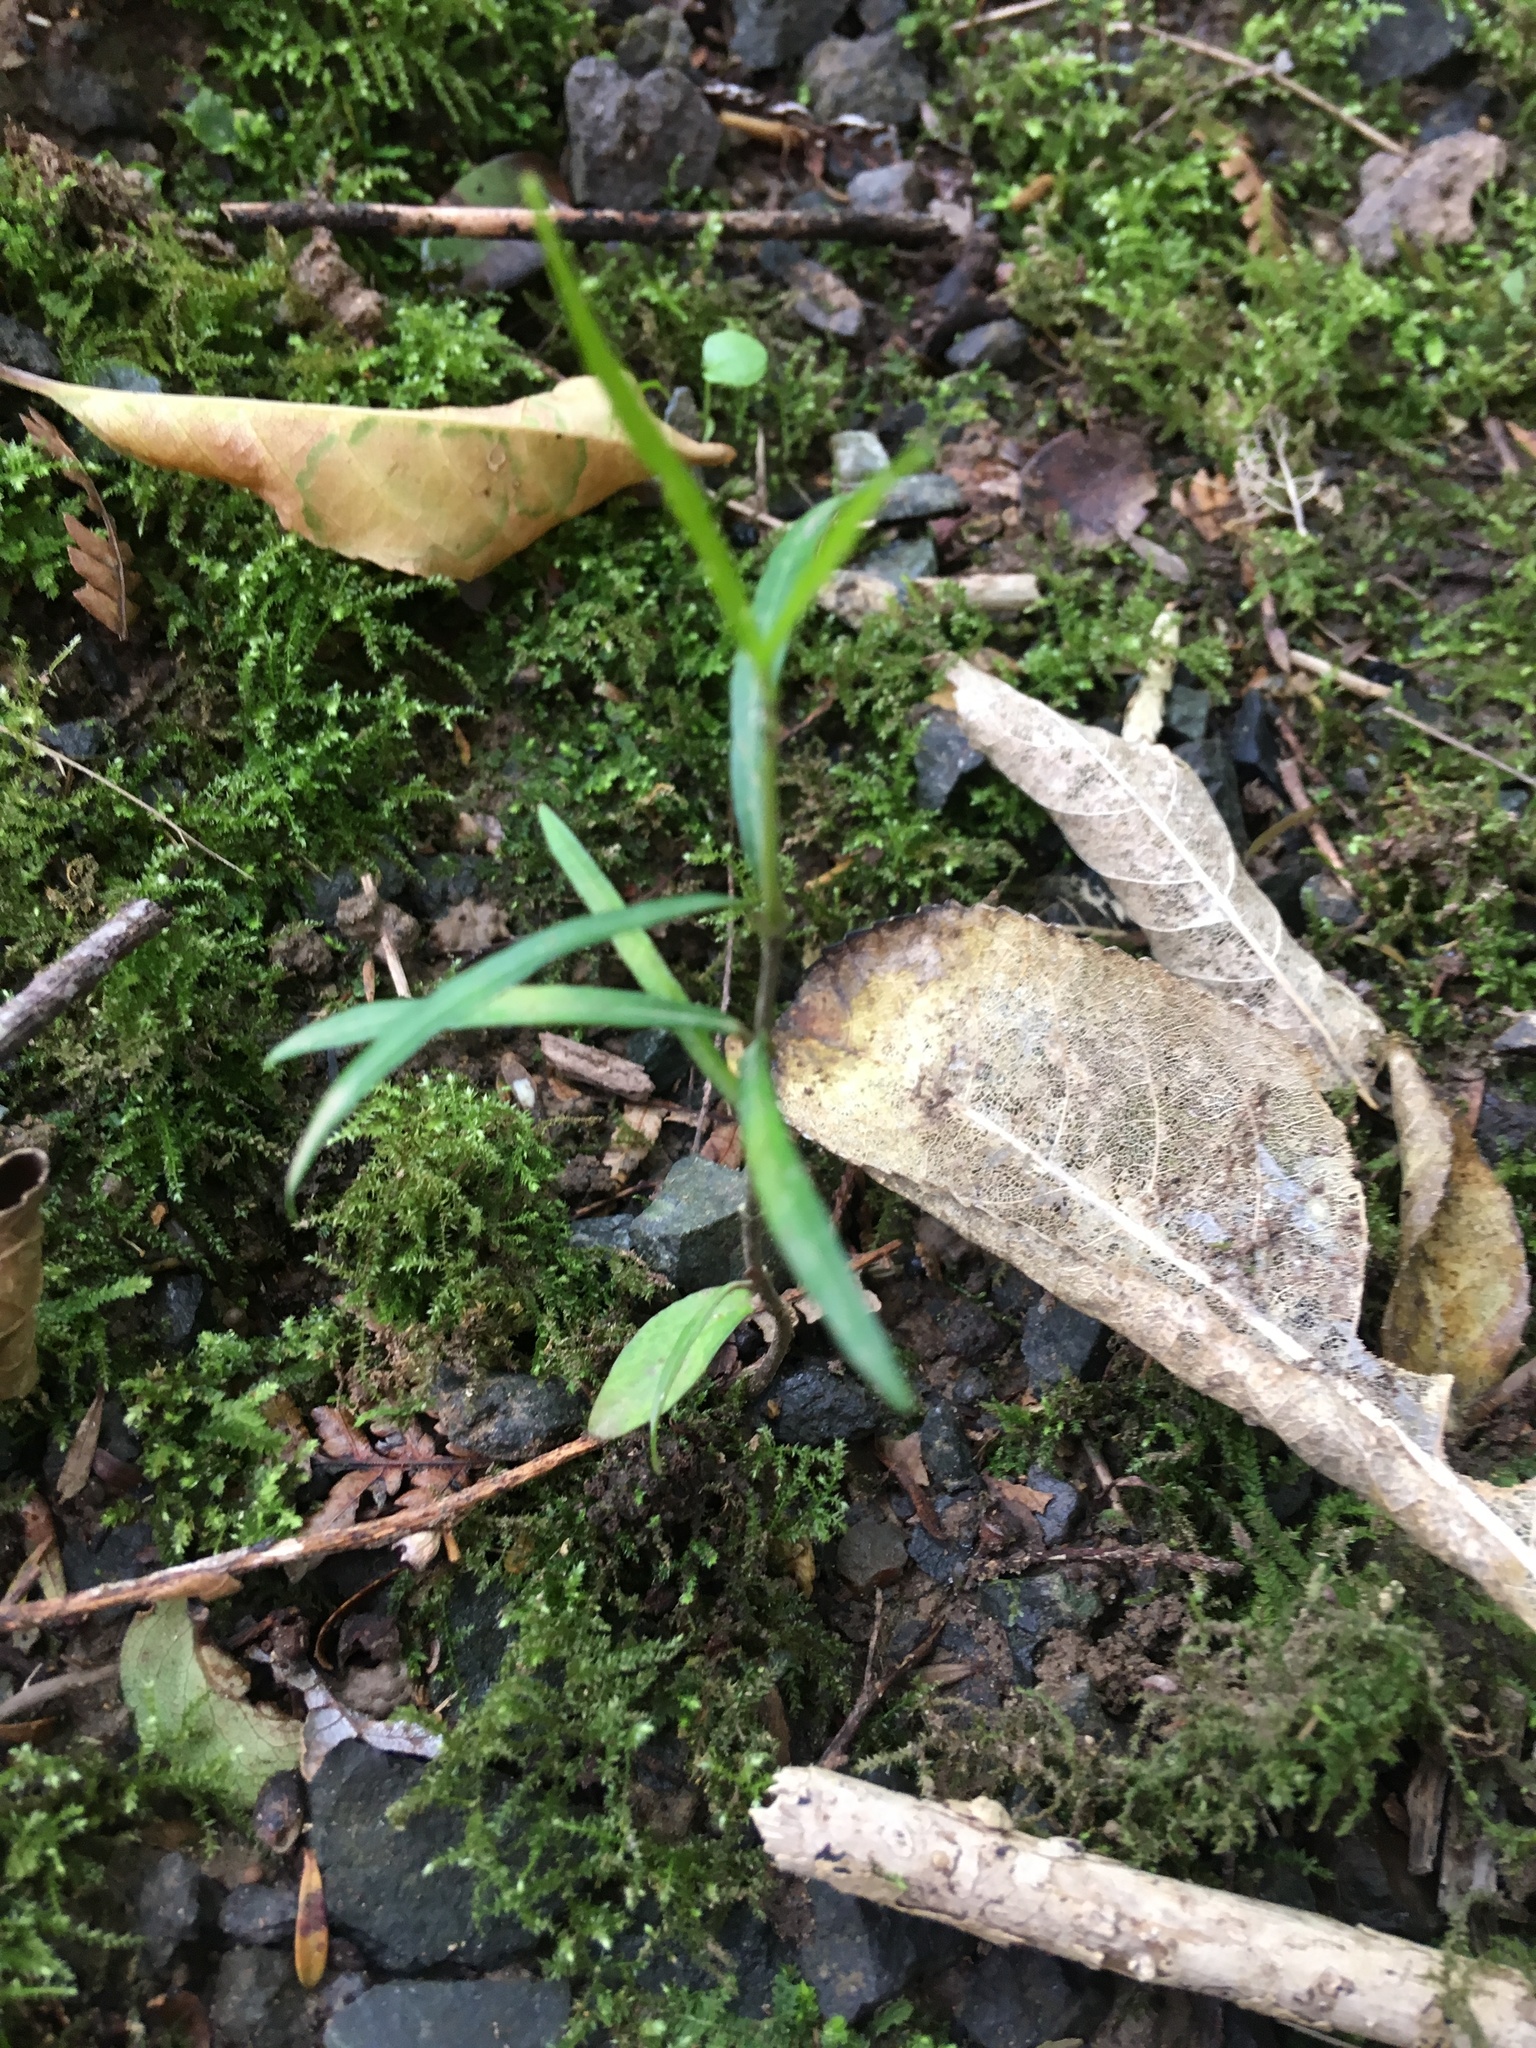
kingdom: Plantae
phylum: Tracheophyta
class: Magnoliopsida
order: Lamiales
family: Oleaceae
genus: Nestegis
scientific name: Nestegis lanceolata
